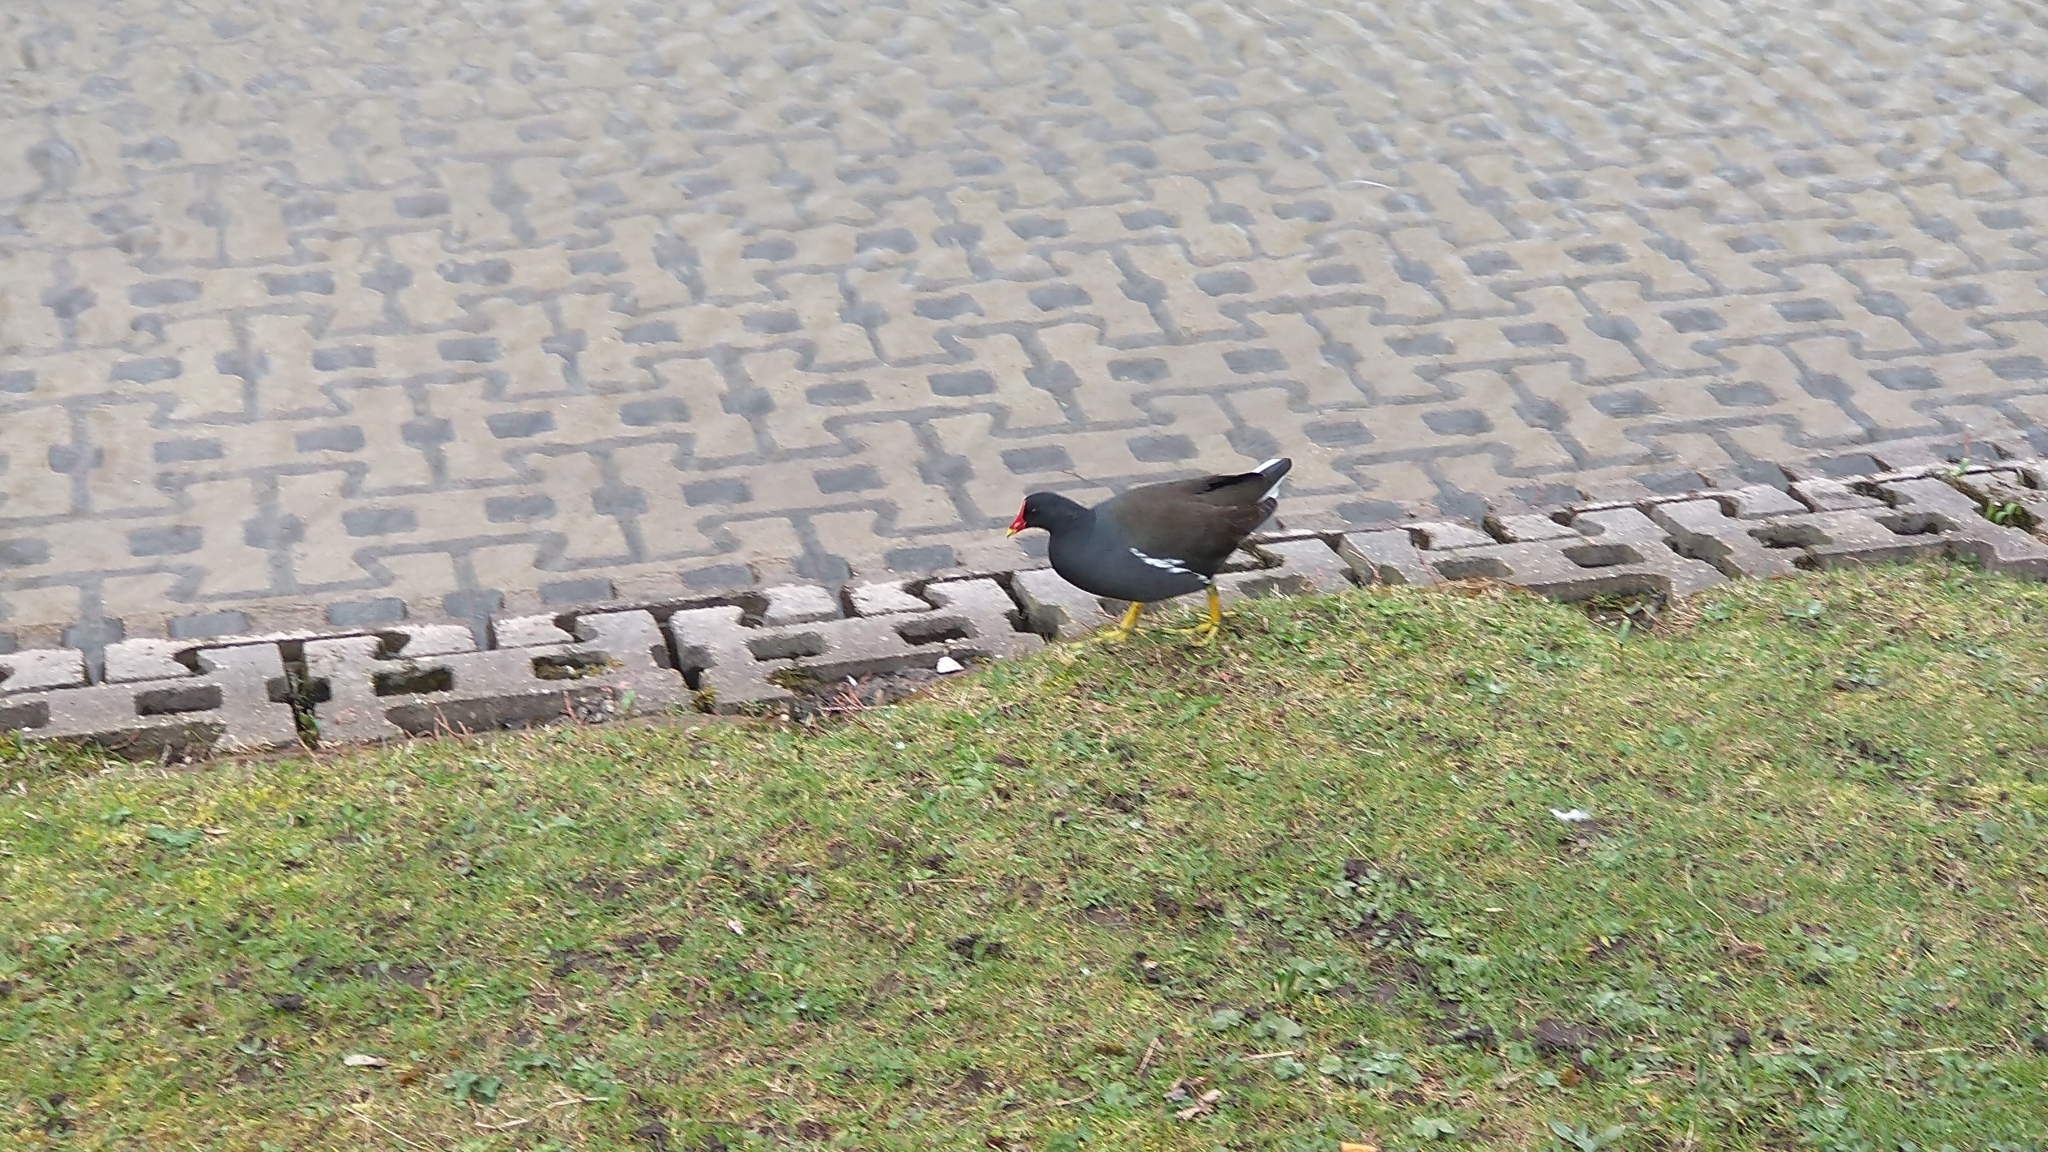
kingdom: Animalia
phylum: Chordata
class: Aves
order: Gruiformes
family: Rallidae
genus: Gallinula
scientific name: Gallinula chloropus
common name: Common moorhen
